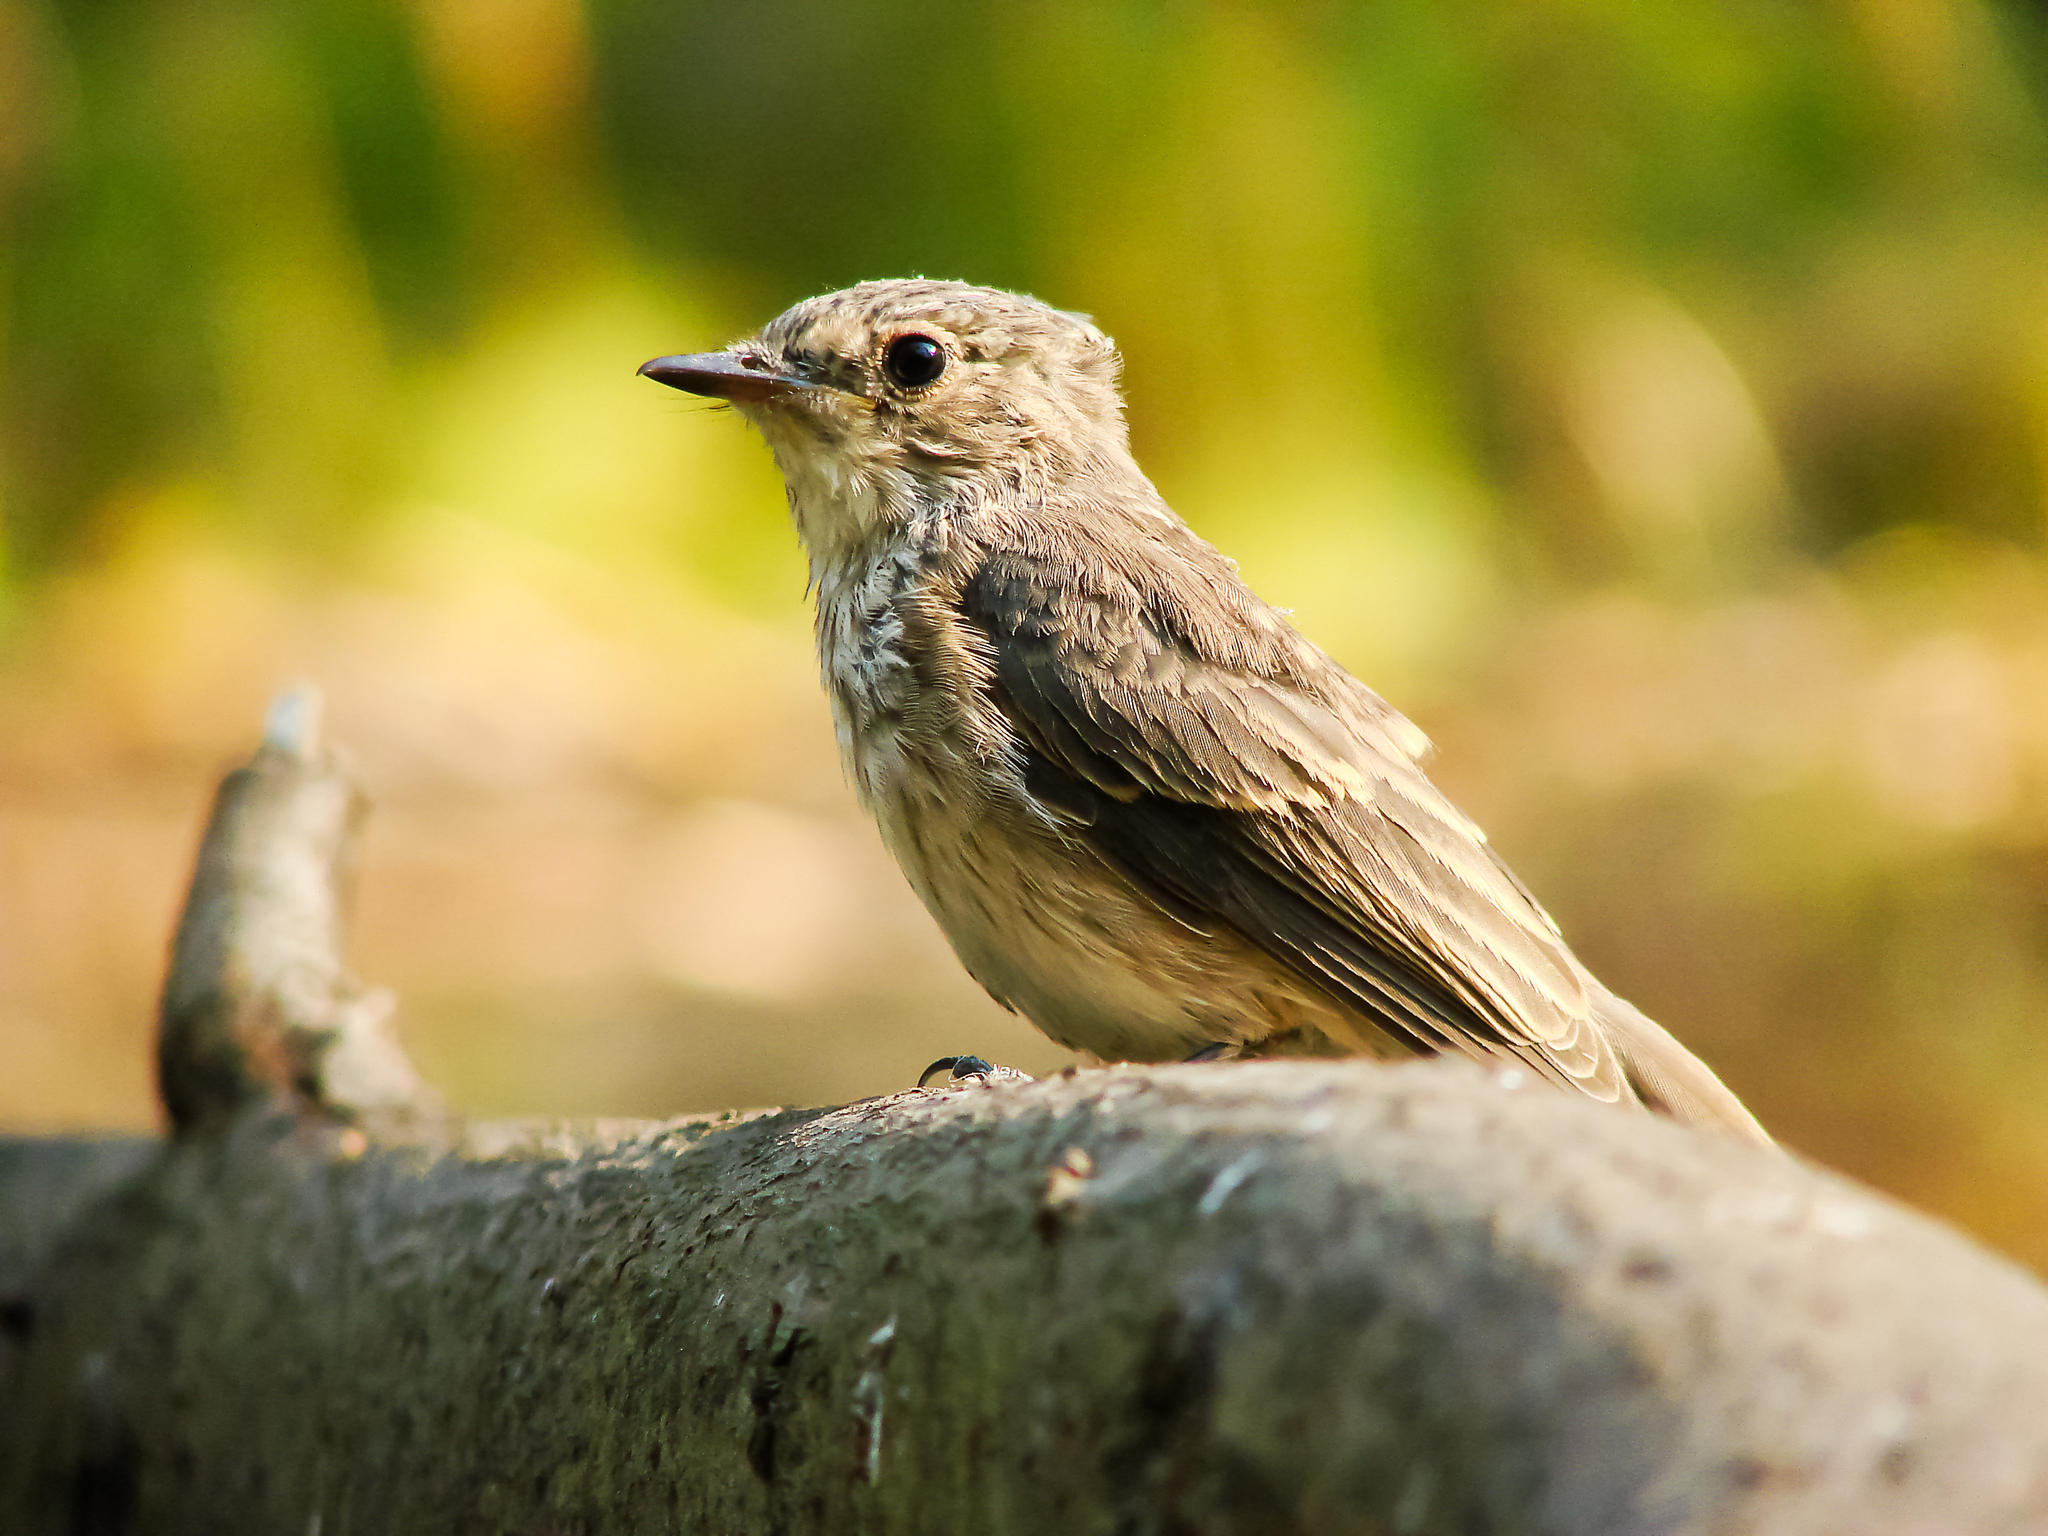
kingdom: Animalia
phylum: Chordata
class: Aves
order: Passeriformes
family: Muscicapidae
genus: Muscicapa
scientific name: Muscicapa striata
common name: Spotted flycatcher
